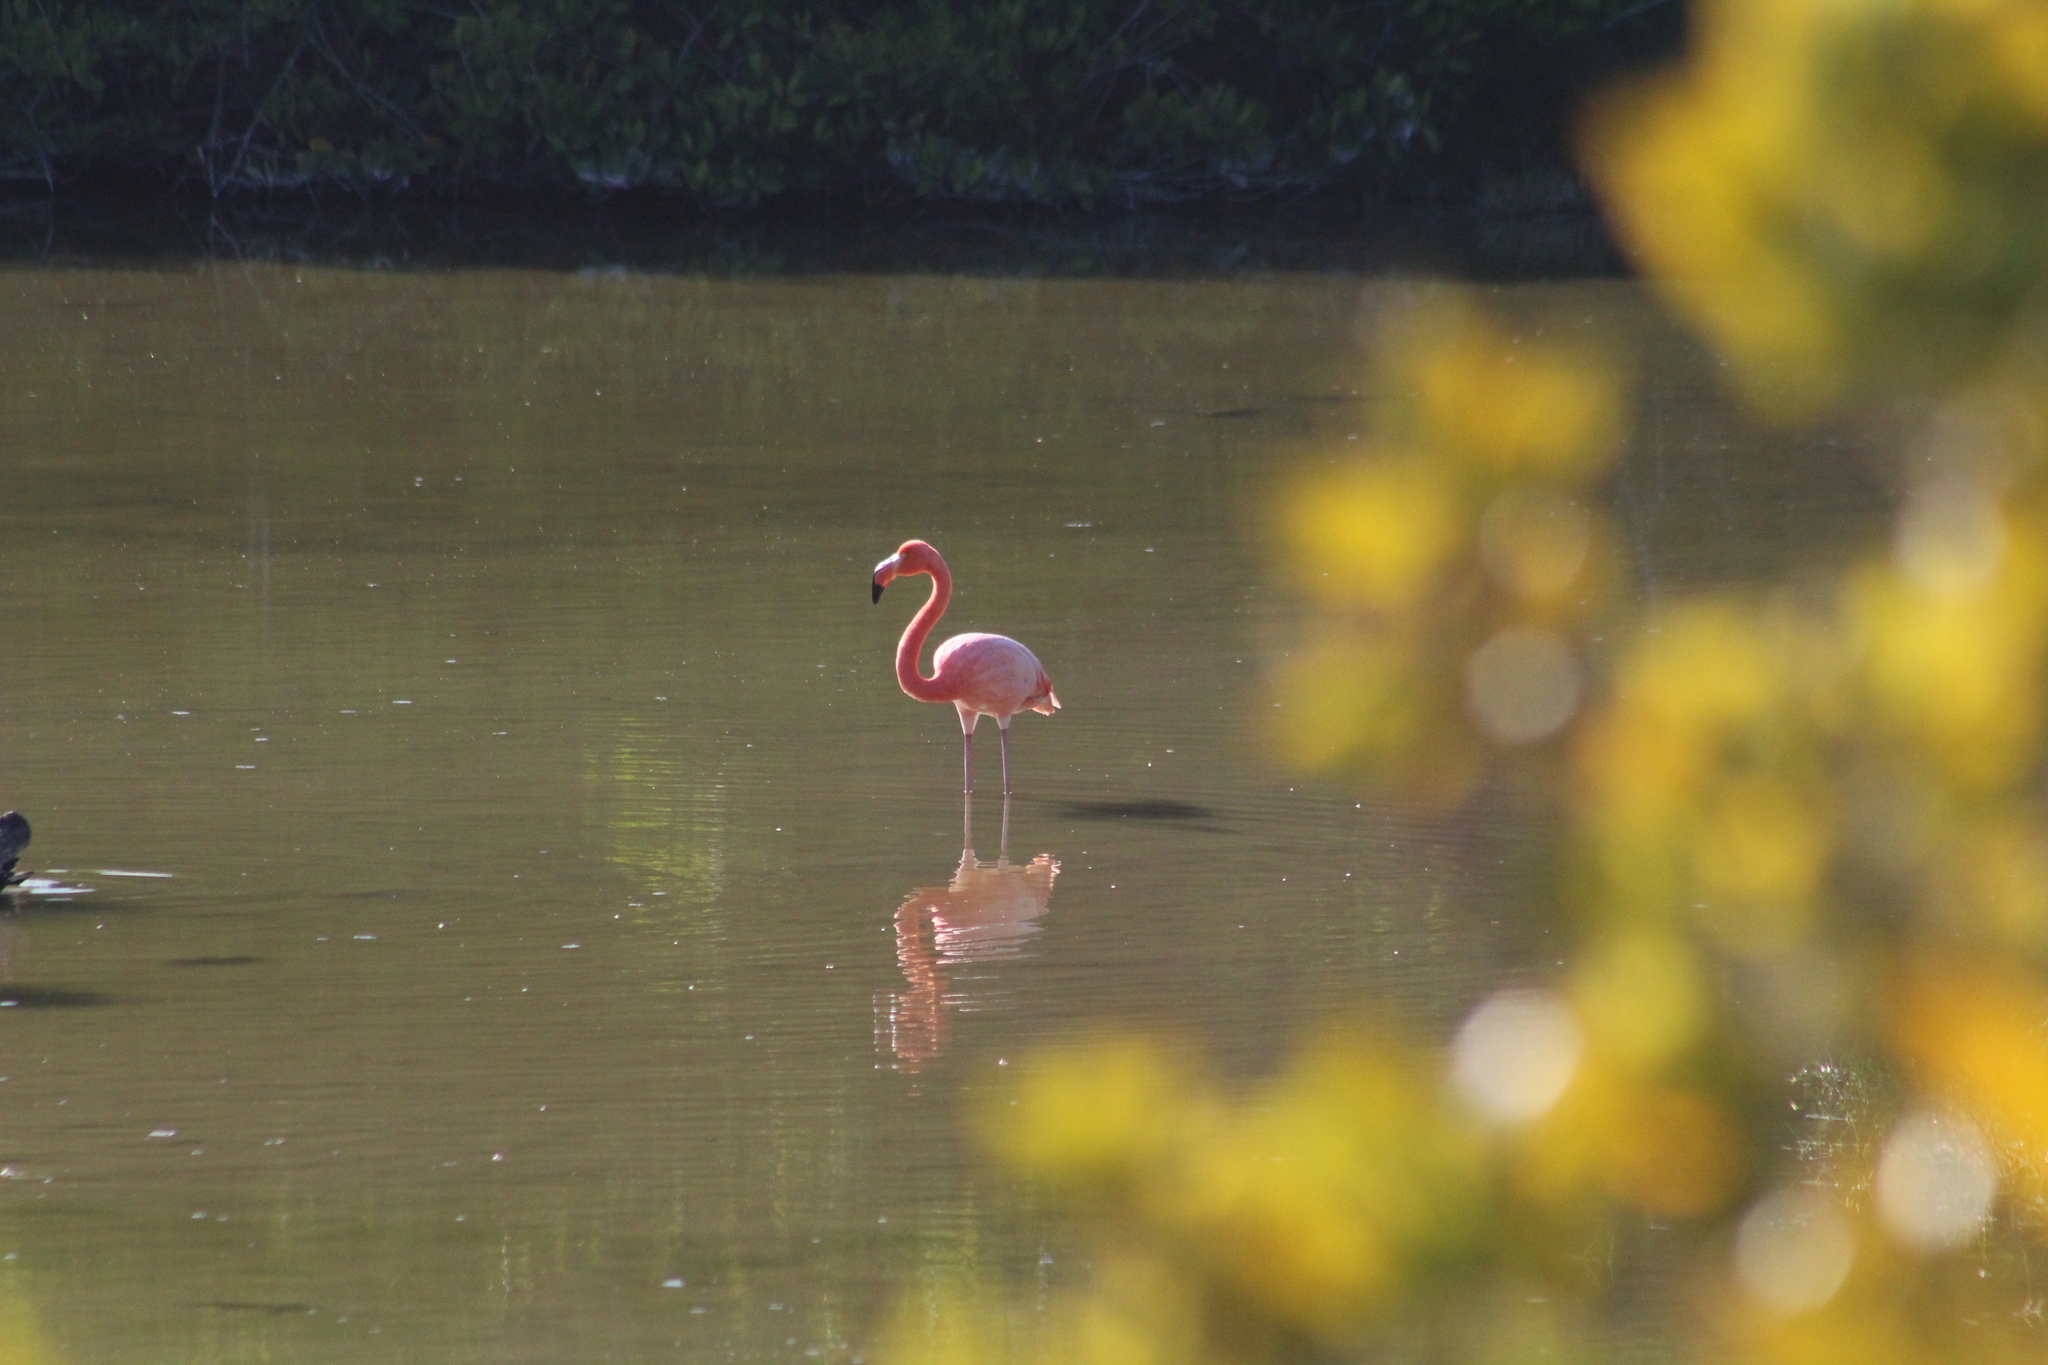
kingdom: Animalia
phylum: Chordata
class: Aves
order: Phoenicopteriformes
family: Phoenicopteridae
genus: Phoenicopterus
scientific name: Phoenicopterus ruber
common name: American flamingo
